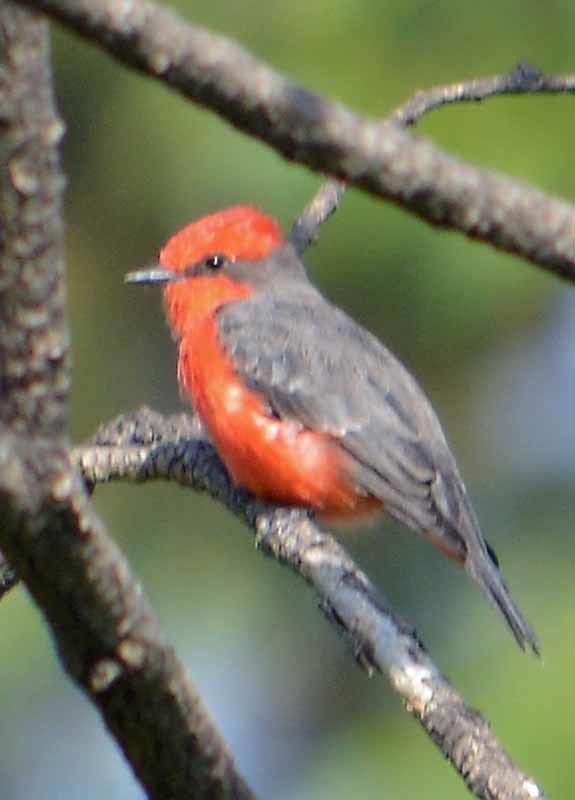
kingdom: Animalia
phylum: Chordata
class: Aves
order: Passeriformes
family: Tyrannidae
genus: Pyrocephalus
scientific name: Pyrocephalus rubinus
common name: Vermilion flycatcher
